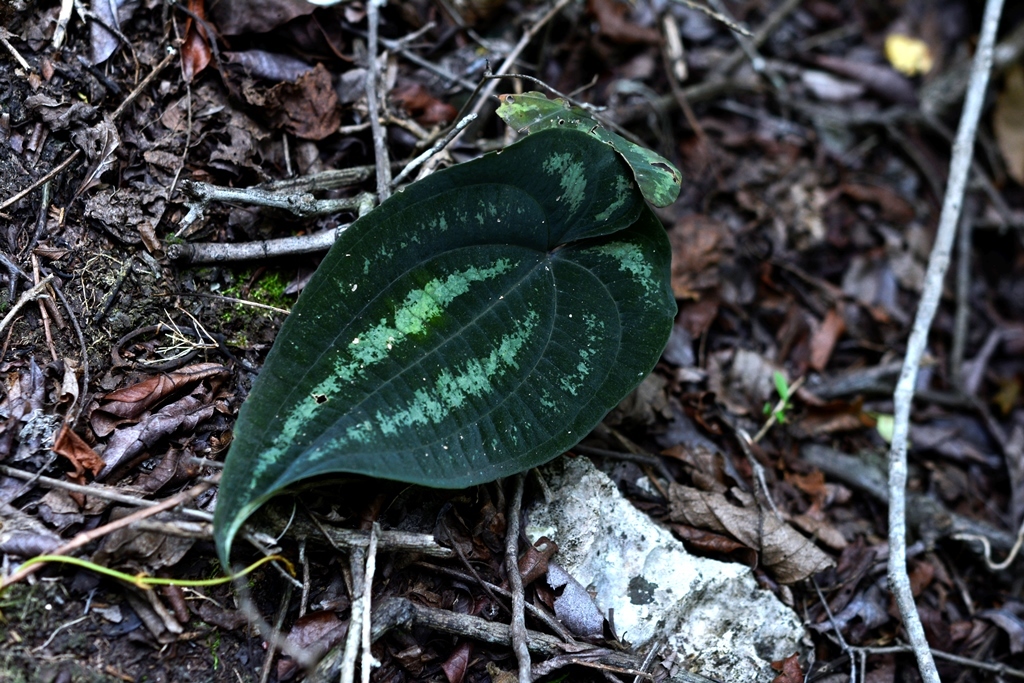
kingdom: Plantae
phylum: Tracheophyta
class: Liliopsida
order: Dioscoreales
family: Dioscoreaceae
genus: Dioscorea
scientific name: Dioscorea cyanisticta
